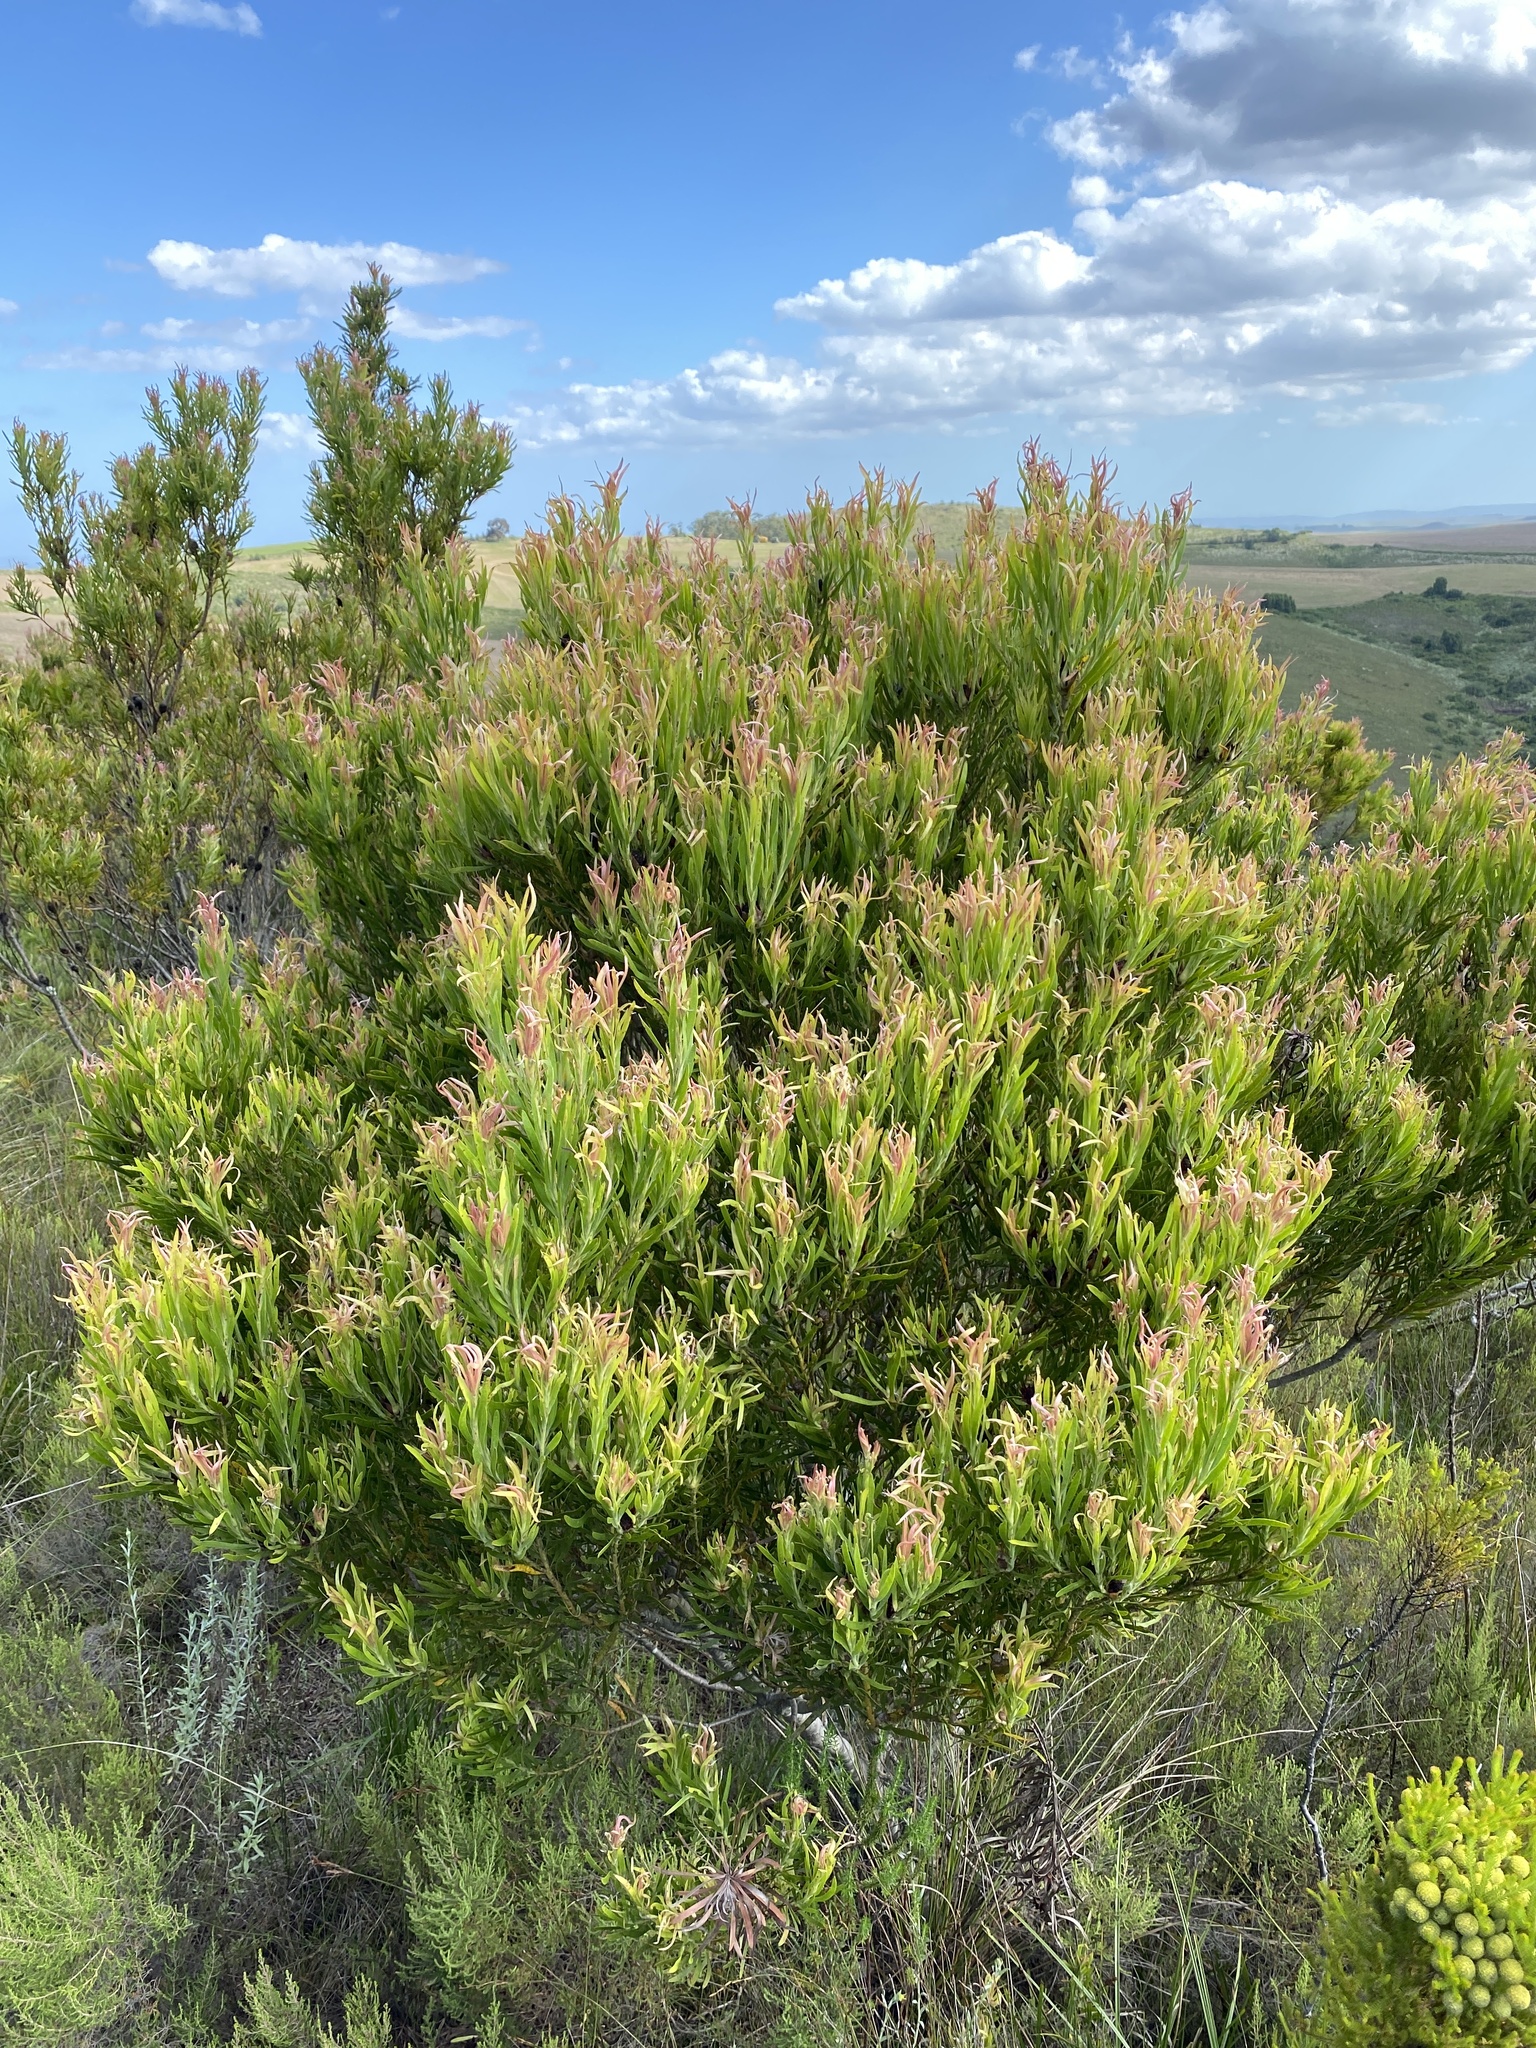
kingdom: Plantae
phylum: Tracheophyta
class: Magnoliopsida
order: Proteales
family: Proteaceae
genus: Leucadendron
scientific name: Leucadendron eucalyptifolium
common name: Gum-leaved conebush
